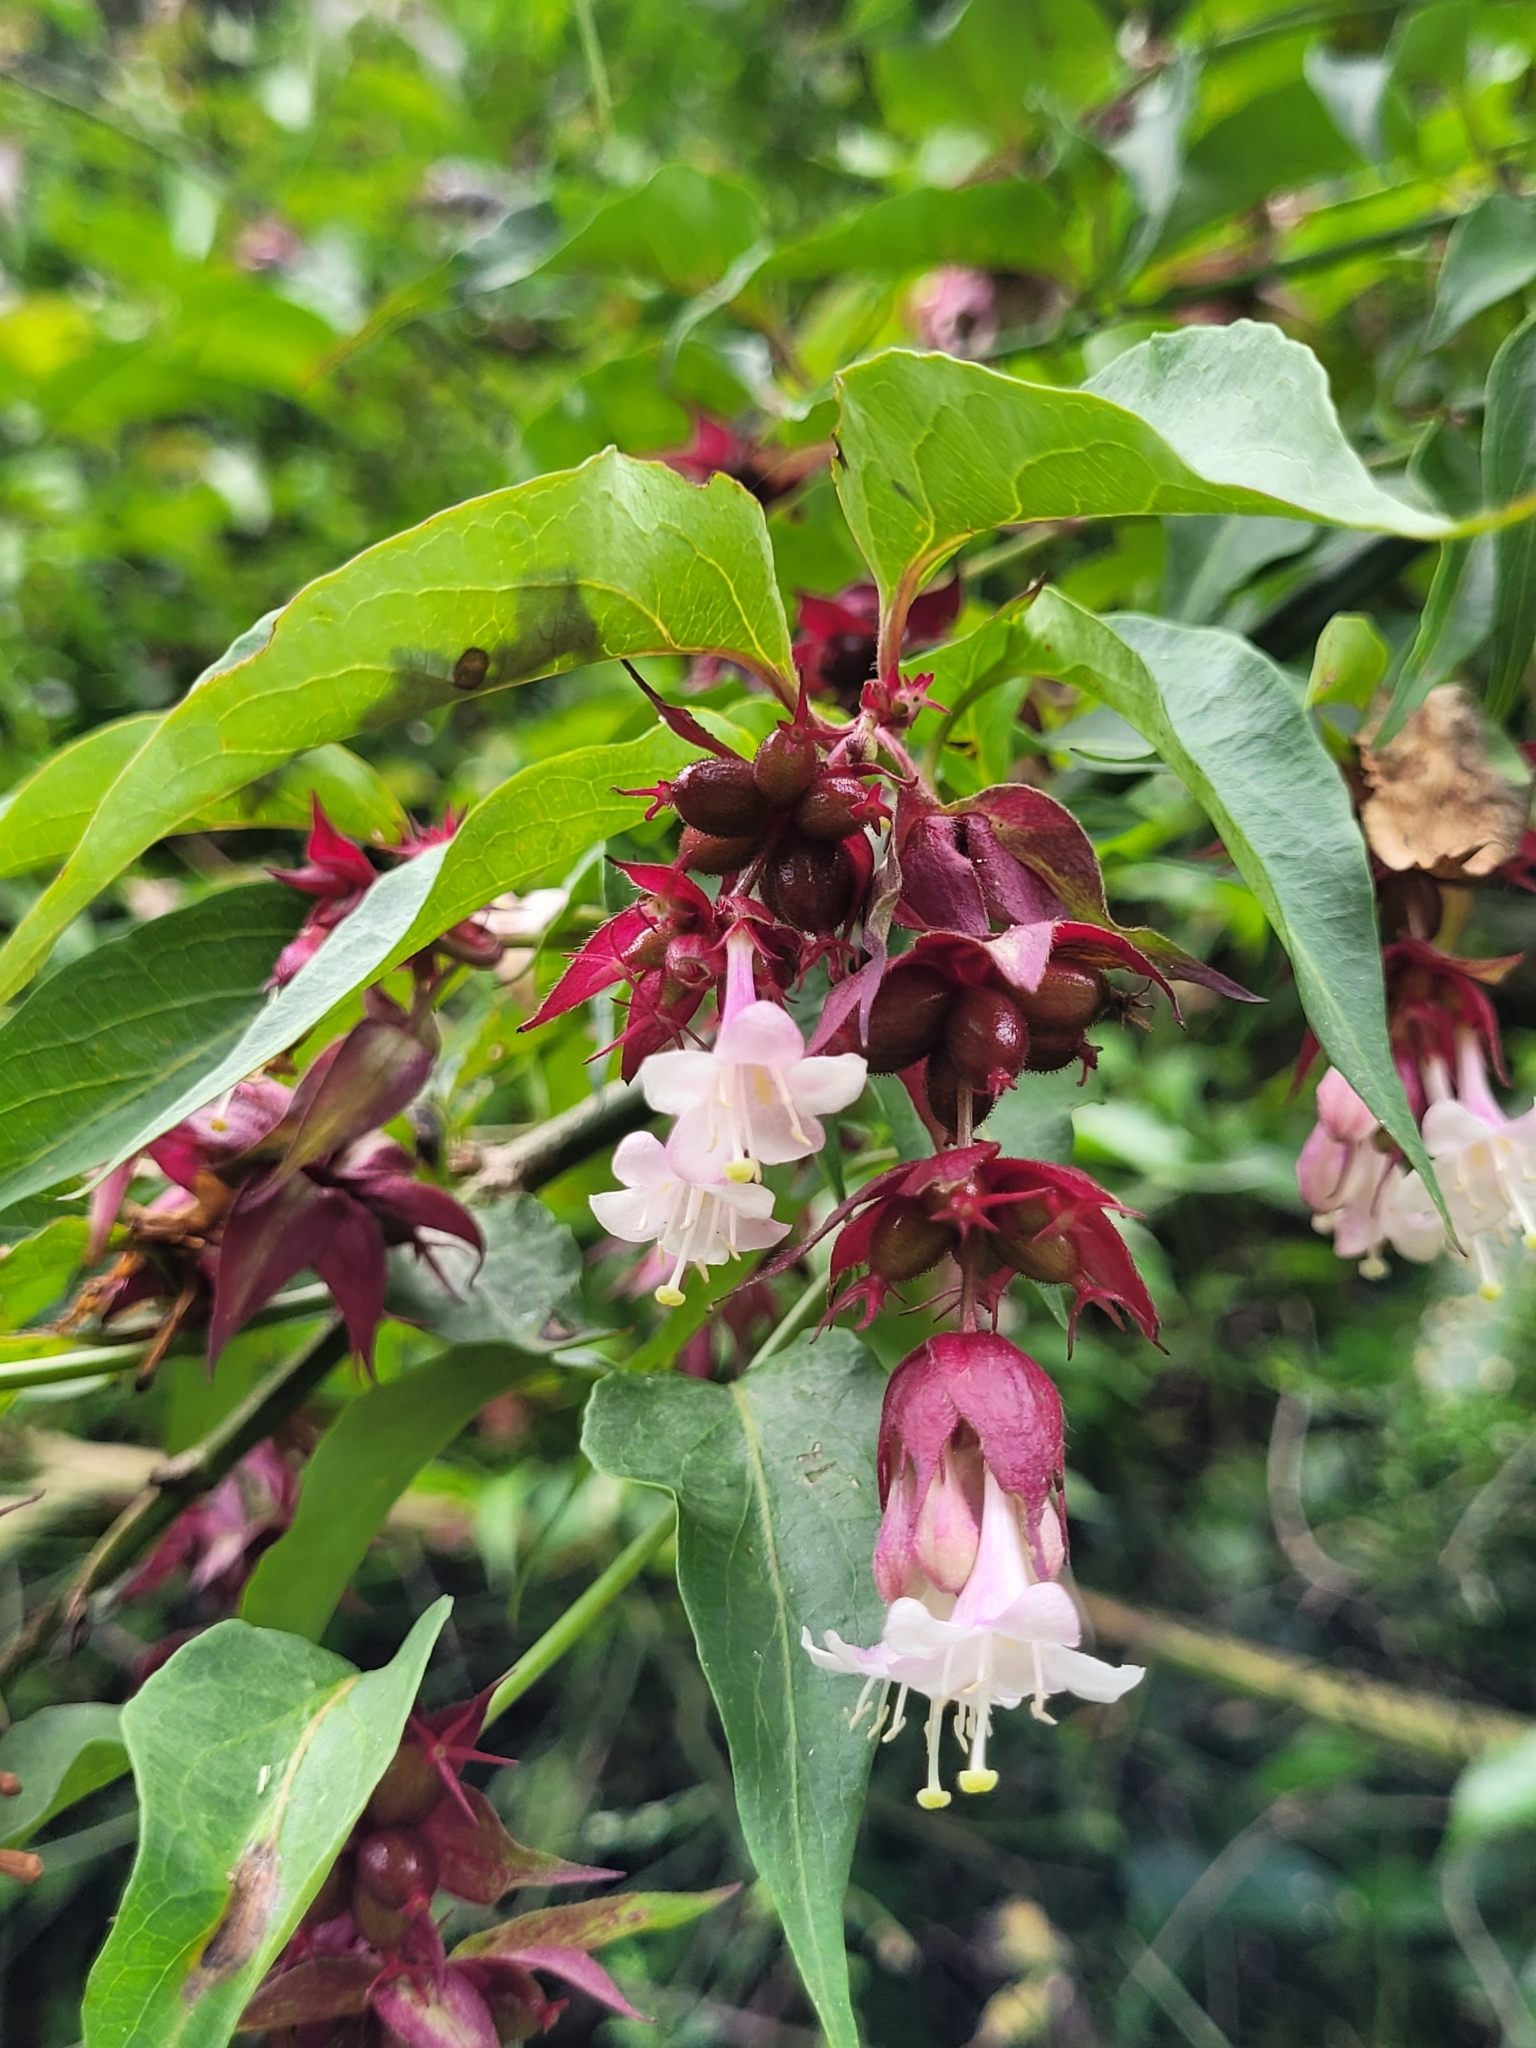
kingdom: Plantae
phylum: Tracheophyta
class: Magnoliopsida
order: Dipsacales
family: Caprifoliaceae
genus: Leycesteria
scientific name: Leycesteria formosa
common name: Himalayan honeysuckle
